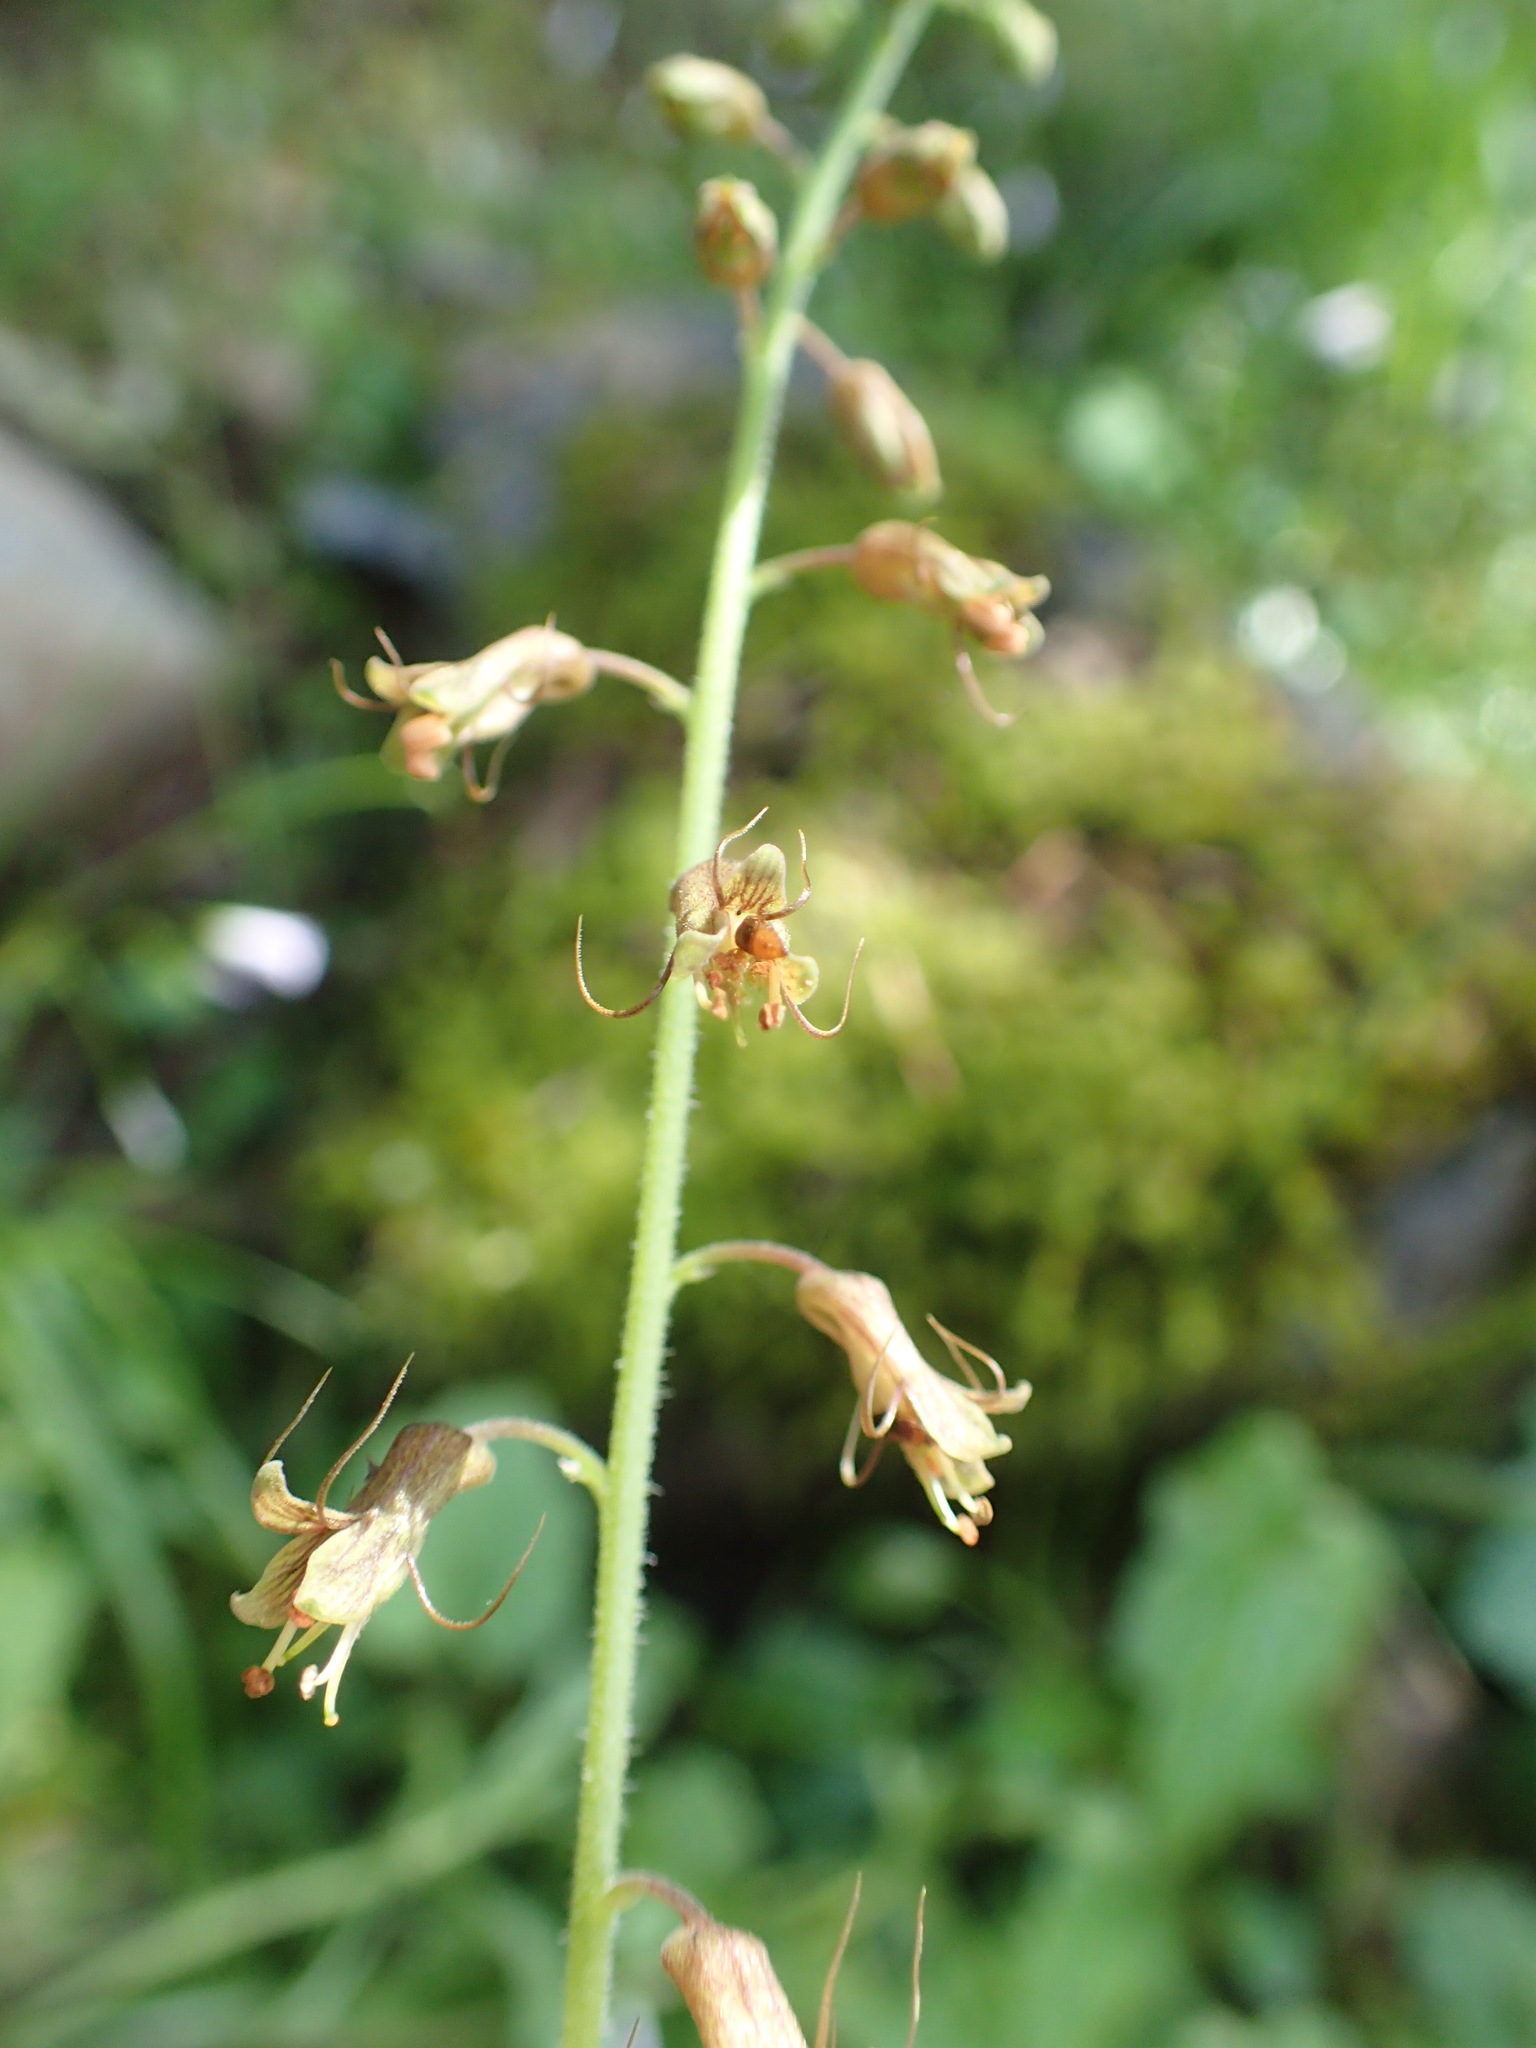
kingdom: Plantae
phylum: Tracheophyta
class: Magnoliopsida
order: Saxifragales
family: Saxifragaceae
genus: Tolmiea
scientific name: Tolmiea menziesii
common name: Pick-a-back-plant
